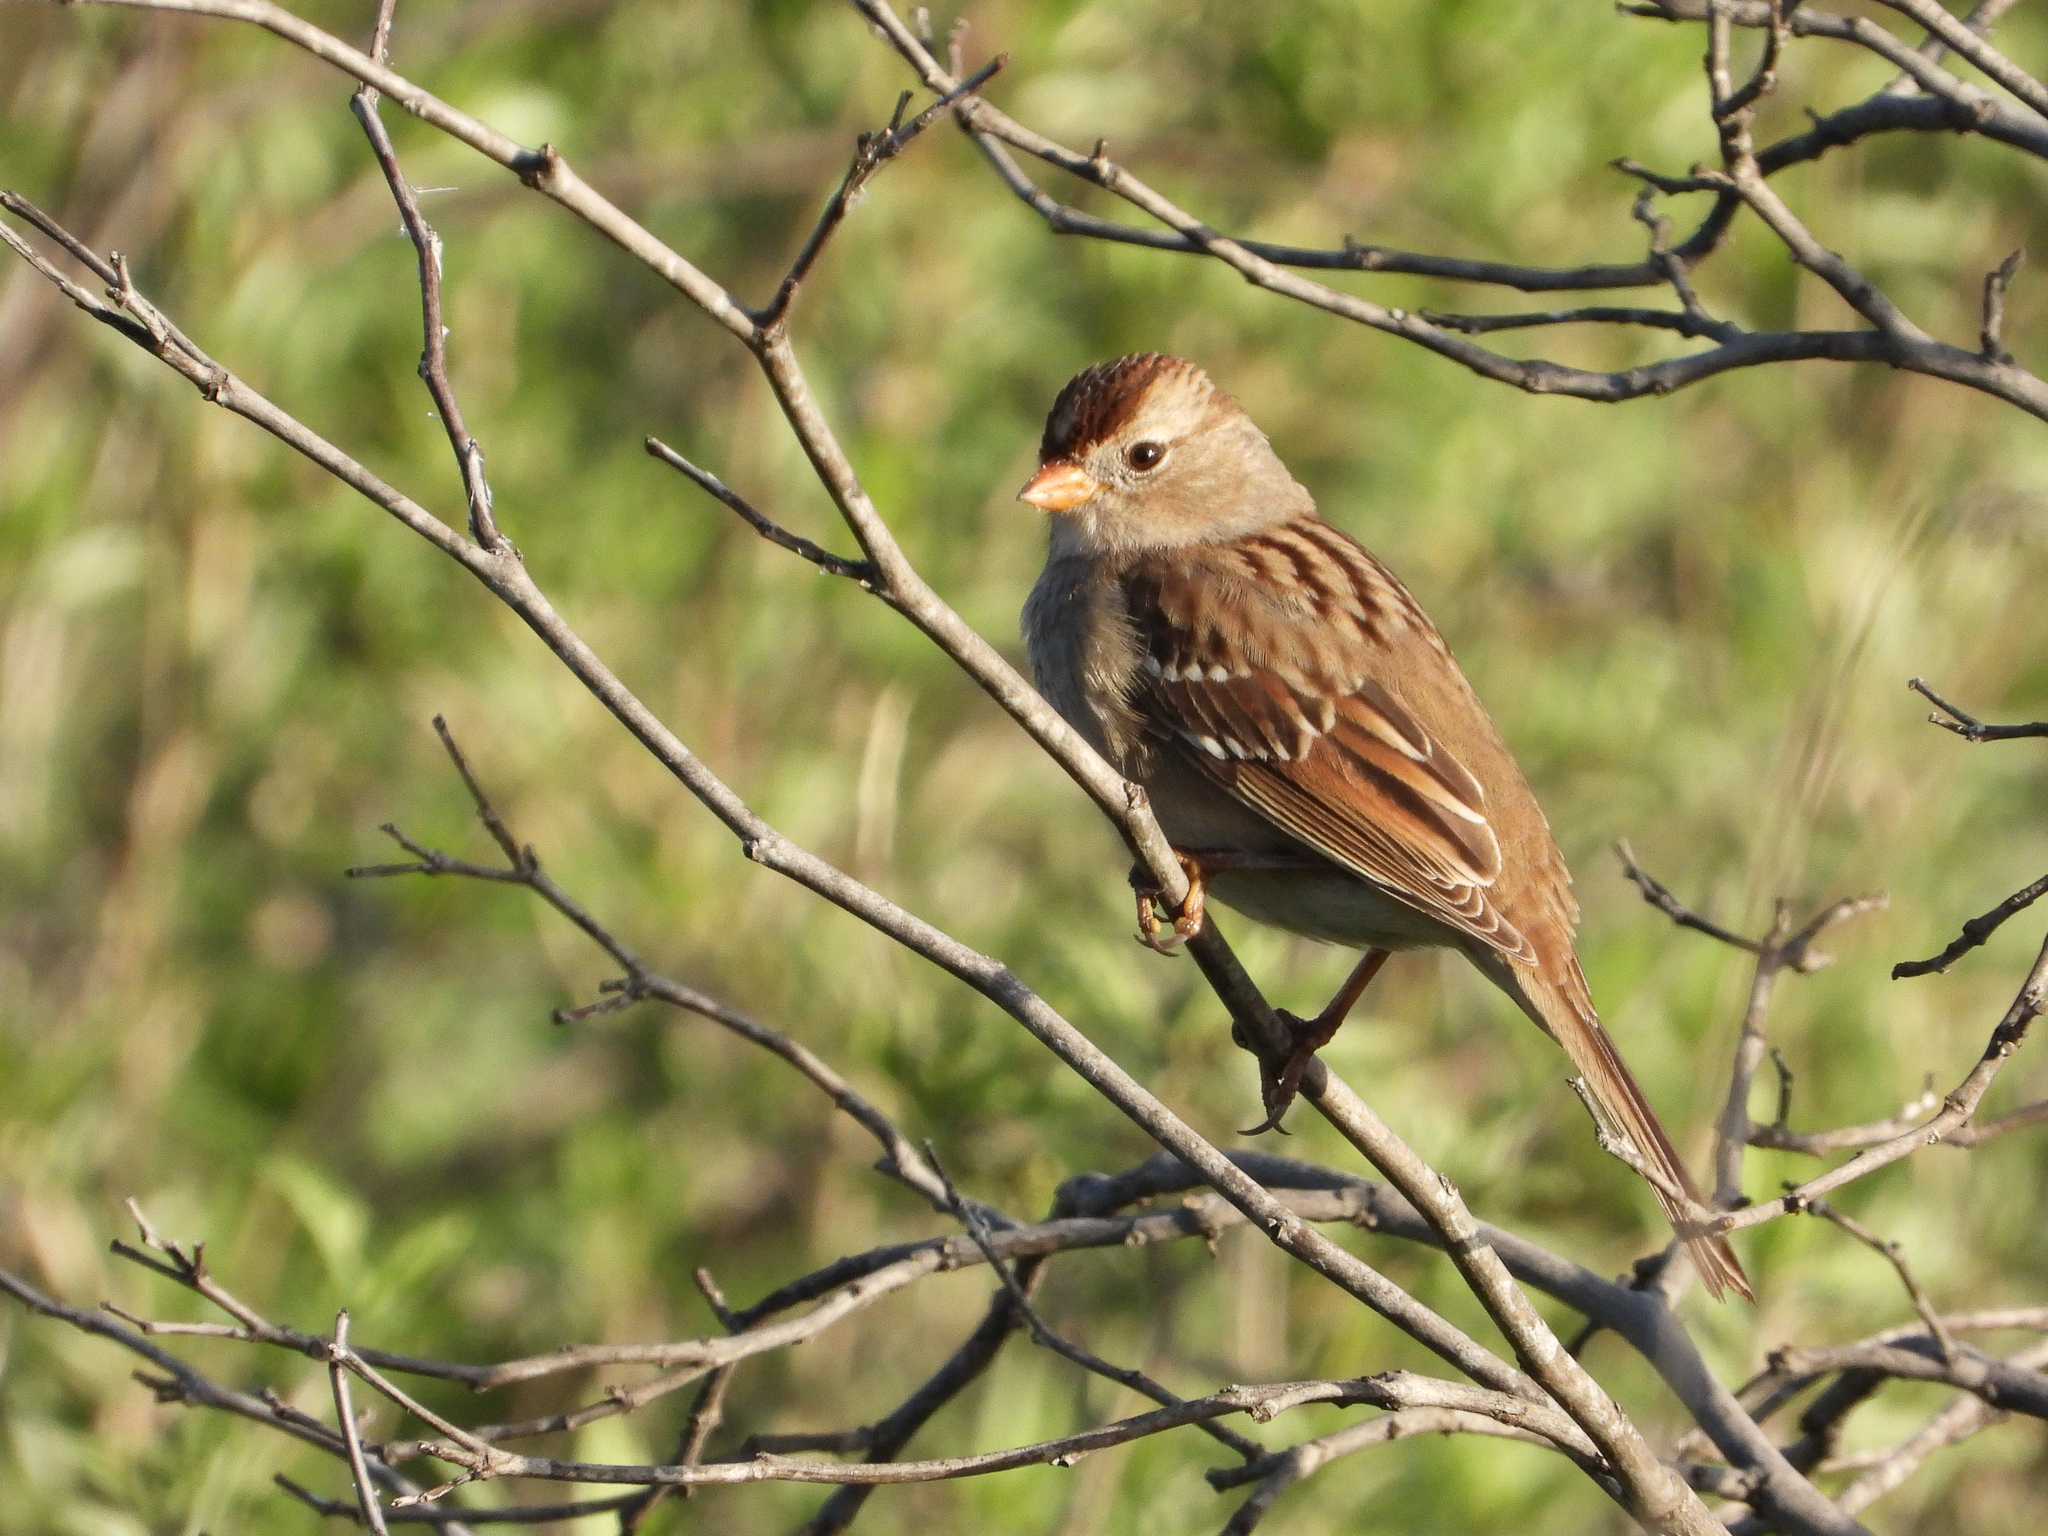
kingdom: Animalia
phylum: Chordata
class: Aves
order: Passeriformes
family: Passerellidae
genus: Zonotrichia
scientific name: Zonotrichia leucophrys
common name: White-crowned sparrow
